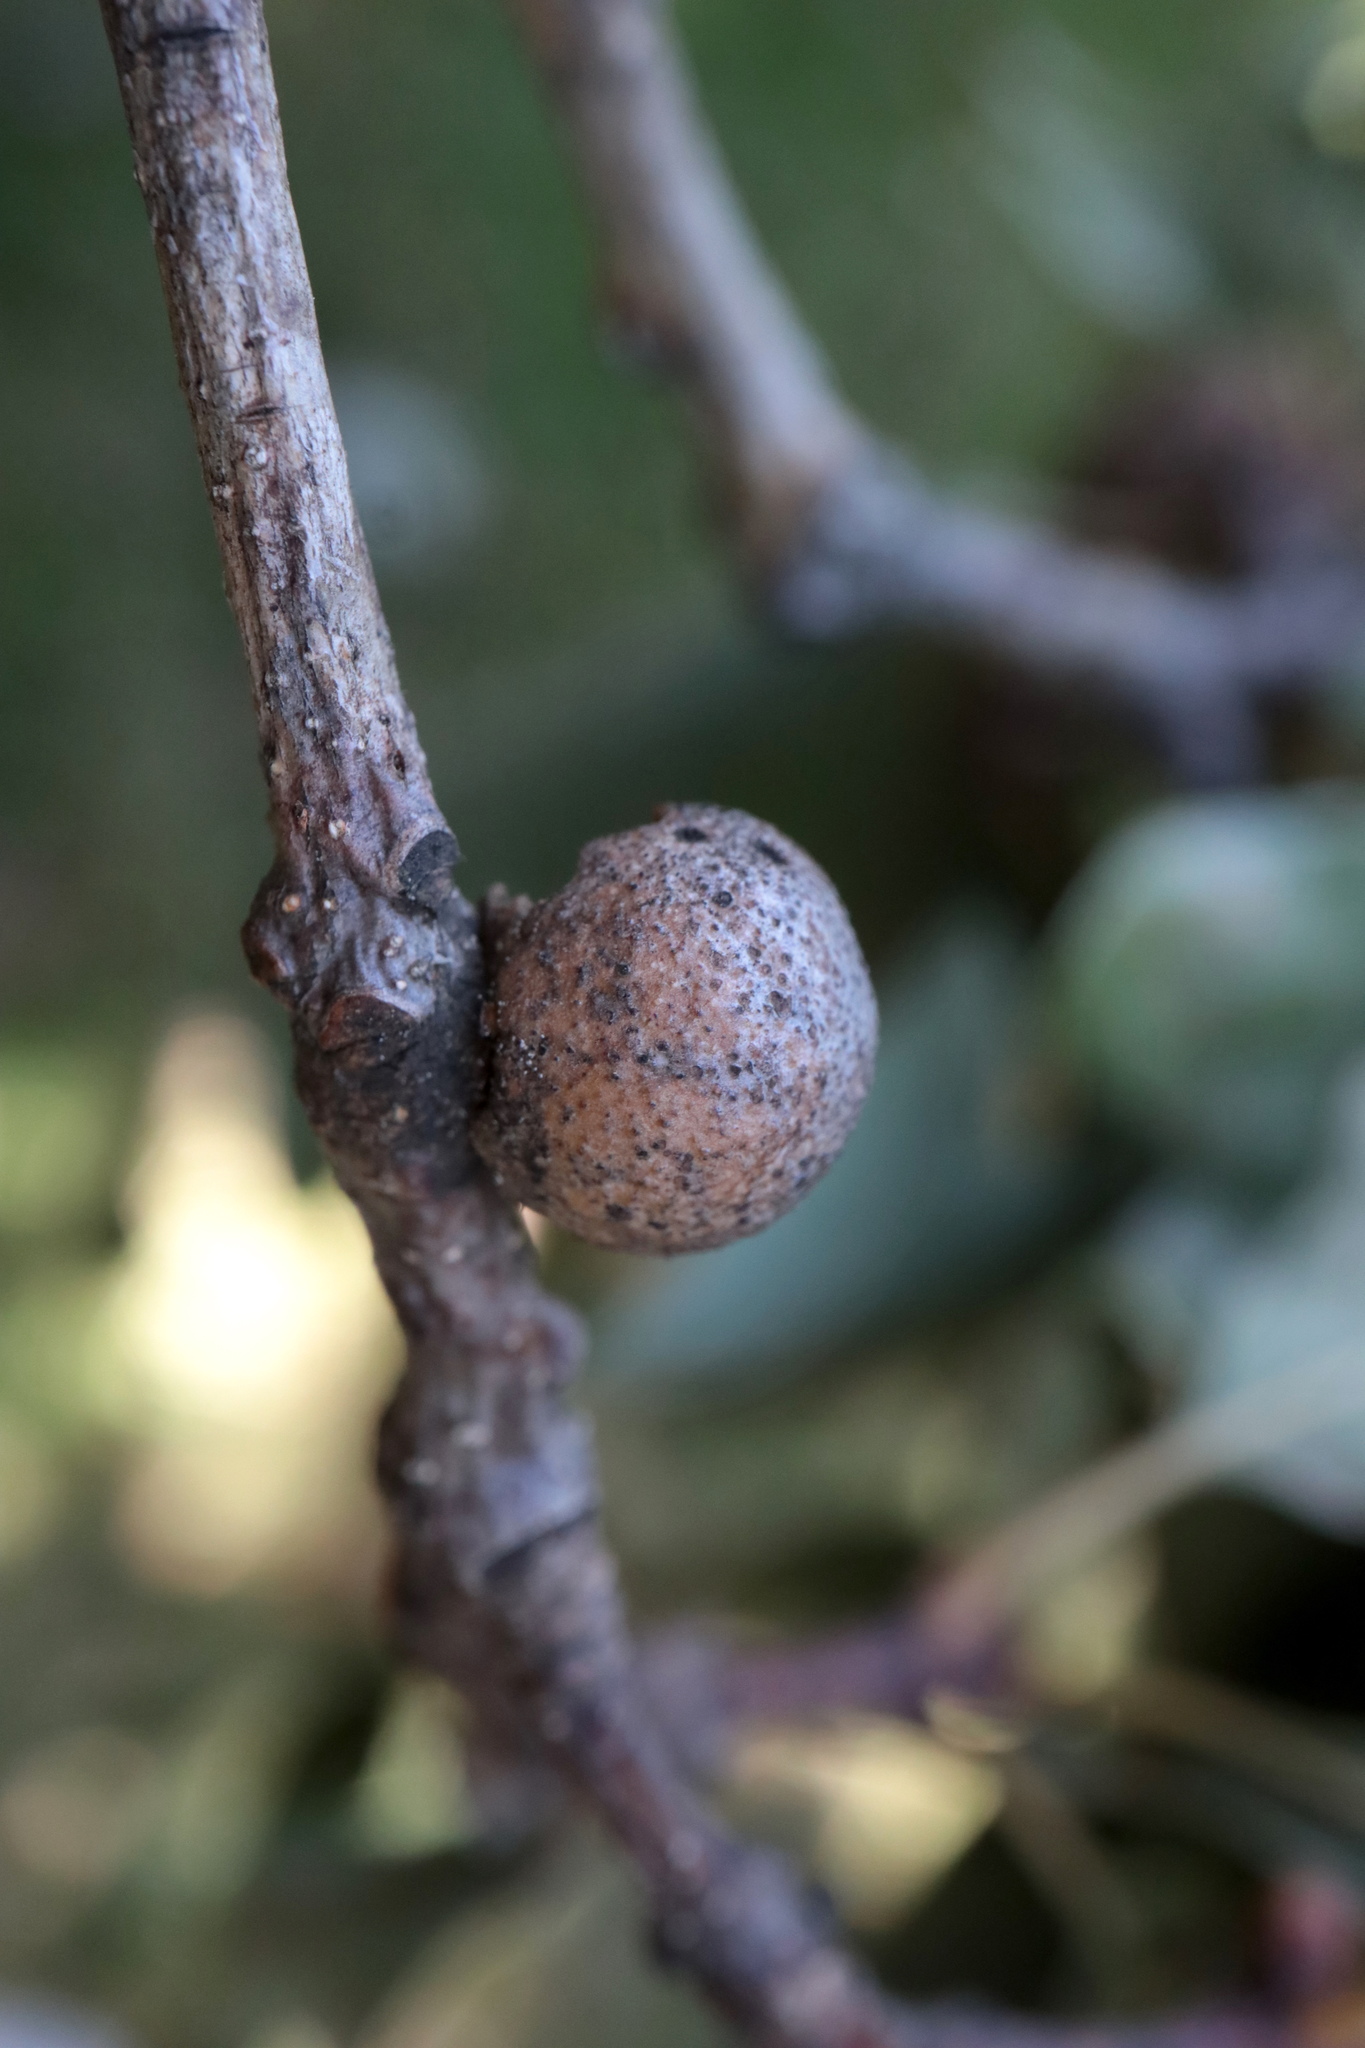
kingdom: Animalia
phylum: Arthropoda
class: Insecta
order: Hymenoptera
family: Cynipidae
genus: Disholcaspis
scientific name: Disholcaspis quercusglobulus
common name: Round bullet gall wasp
